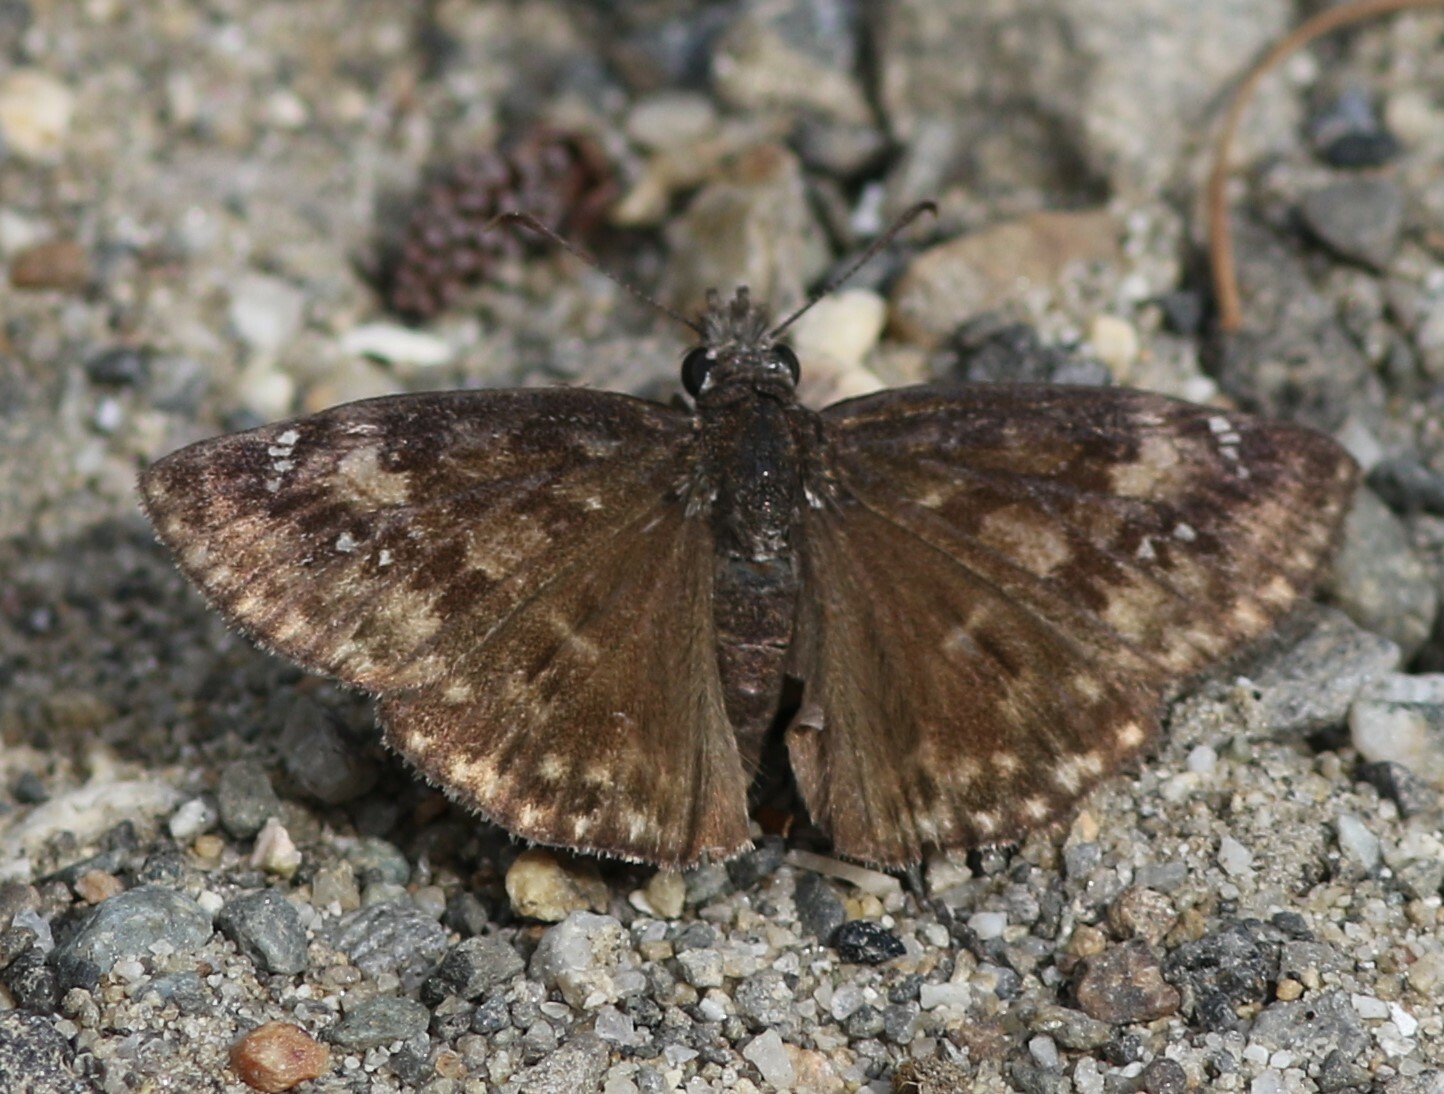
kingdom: Animalia
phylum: Arthropoda
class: Insecta
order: Lepidoptera
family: Hesperiidae
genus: Erynnis
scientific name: Erynnis baptisiae
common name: Wild indigo duskywing
